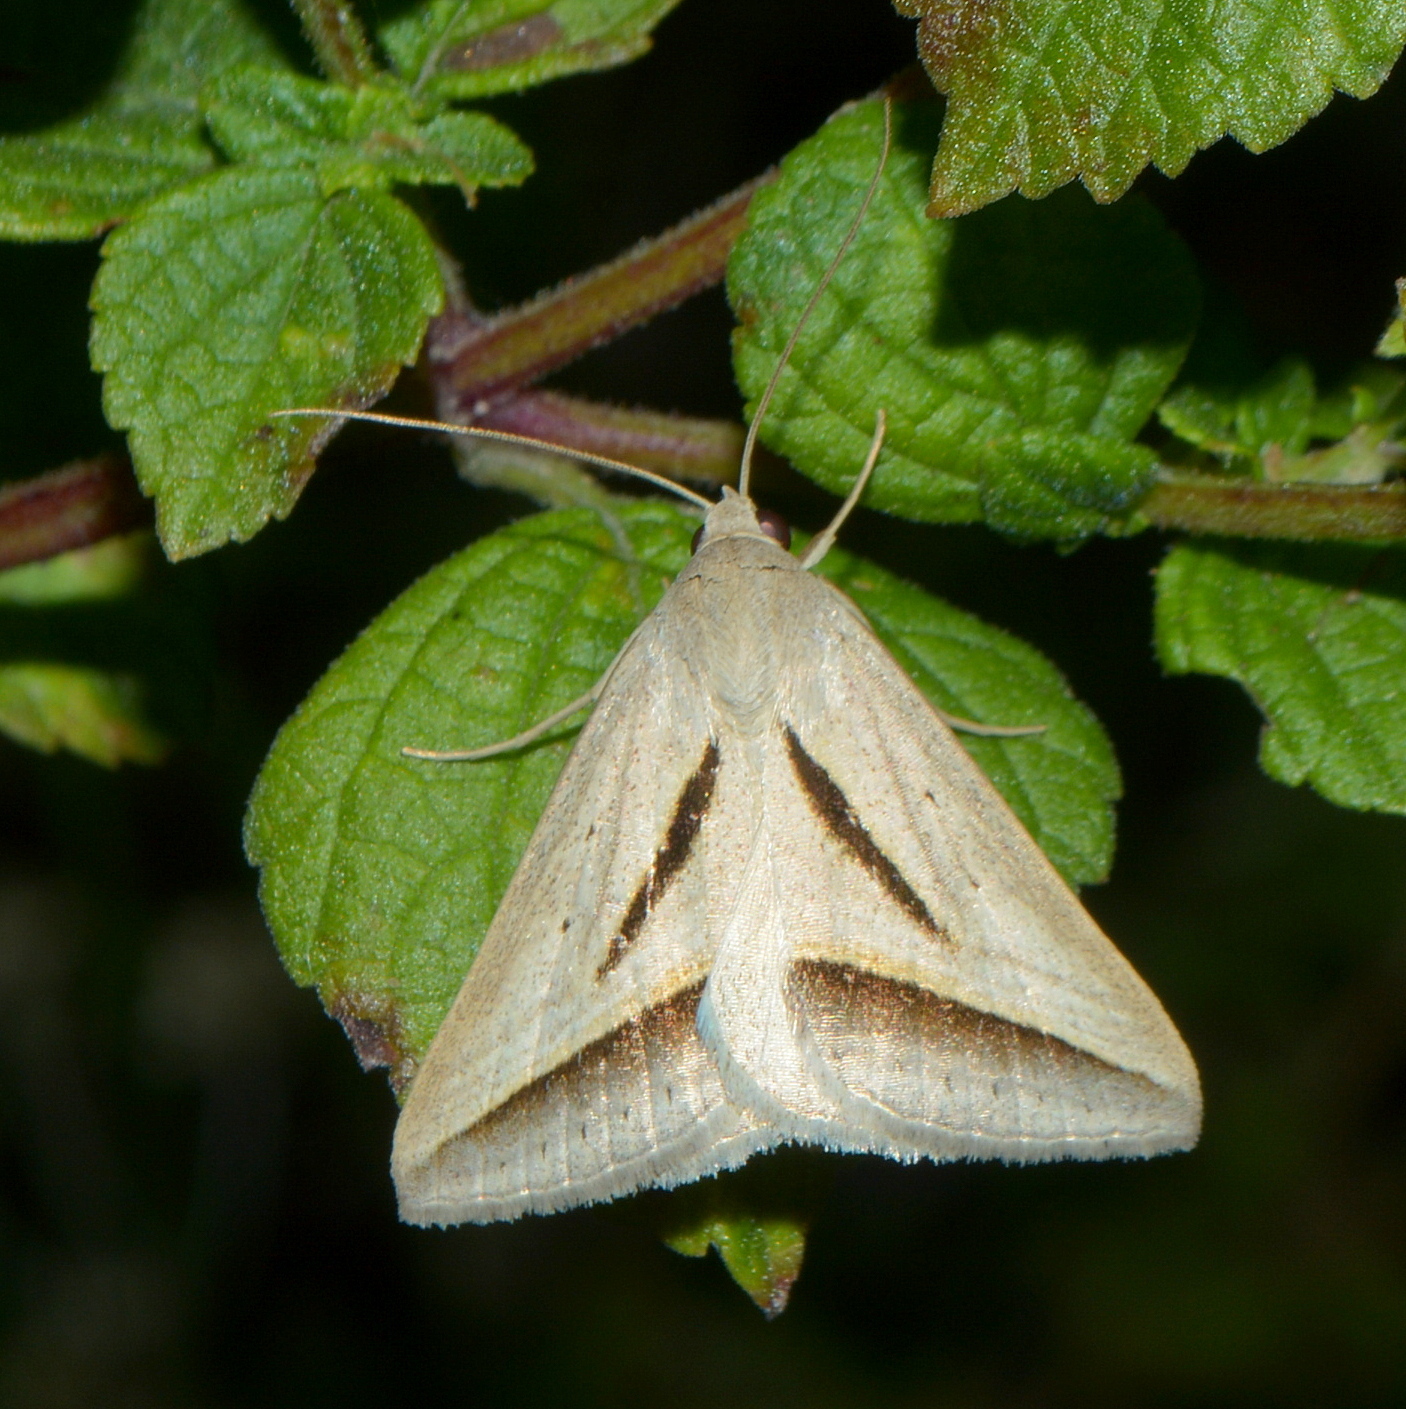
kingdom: Animalia
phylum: Arthropoda
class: Insecta
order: Lepidoptera
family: Erebidae
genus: Ptichodis
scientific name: Ptichodis dorsalis
